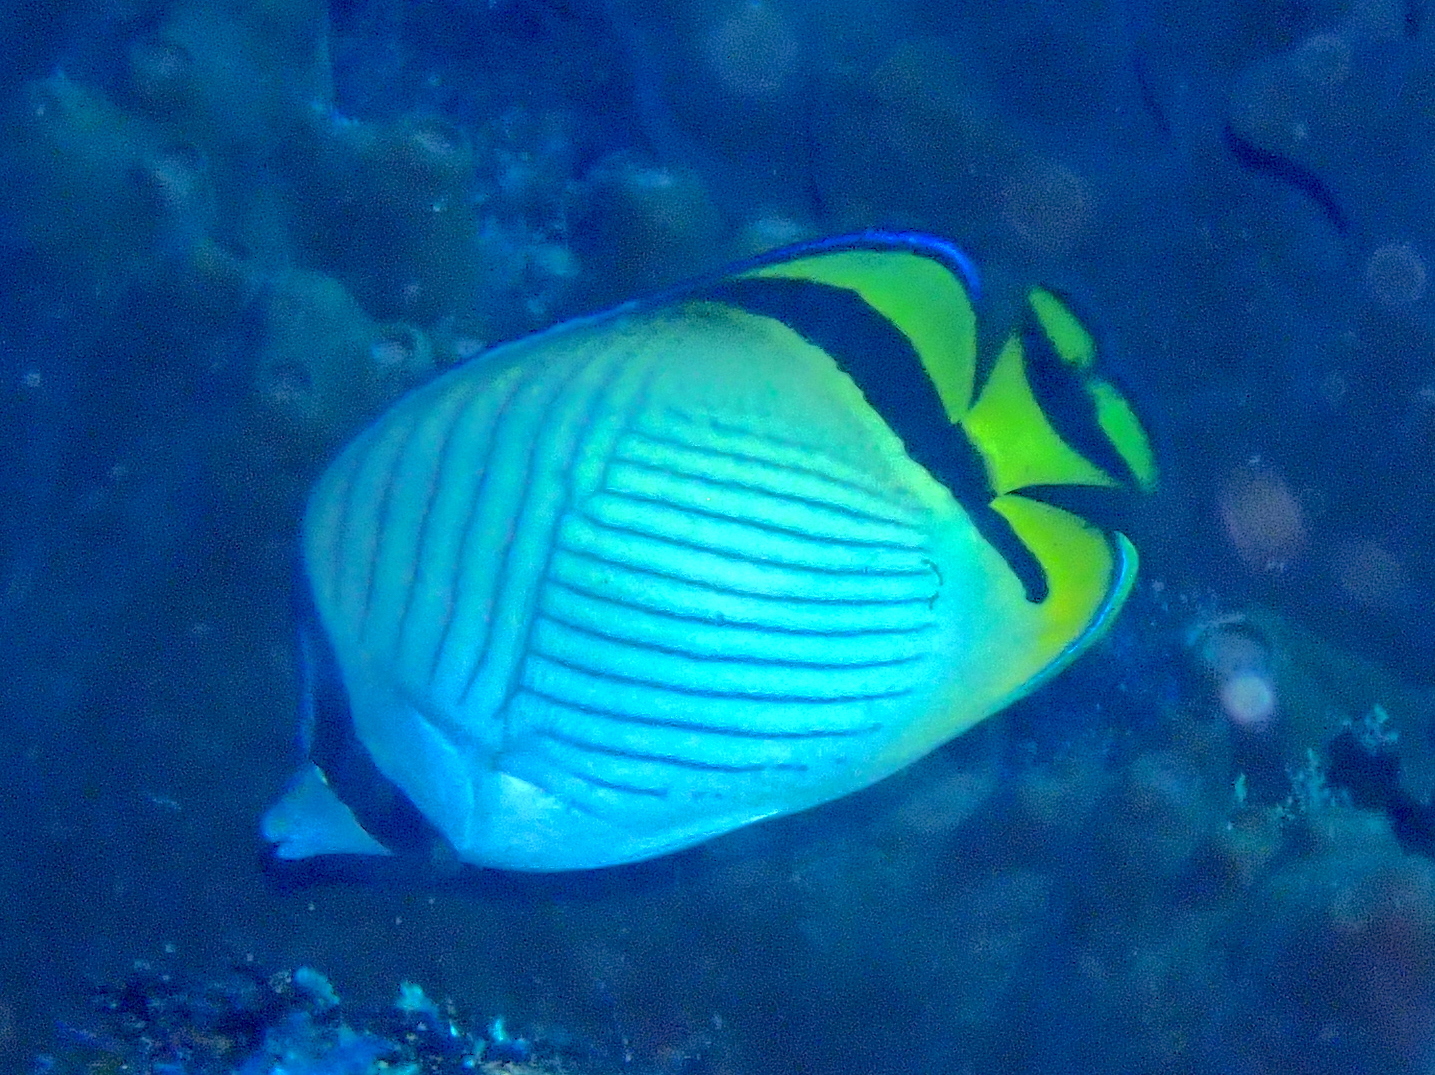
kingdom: Animalia
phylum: Chordata
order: Perciformes
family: Chaetodontidae
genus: Chaetodon
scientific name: Chaetodon vagabundus
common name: Vagabond butterflyfish
